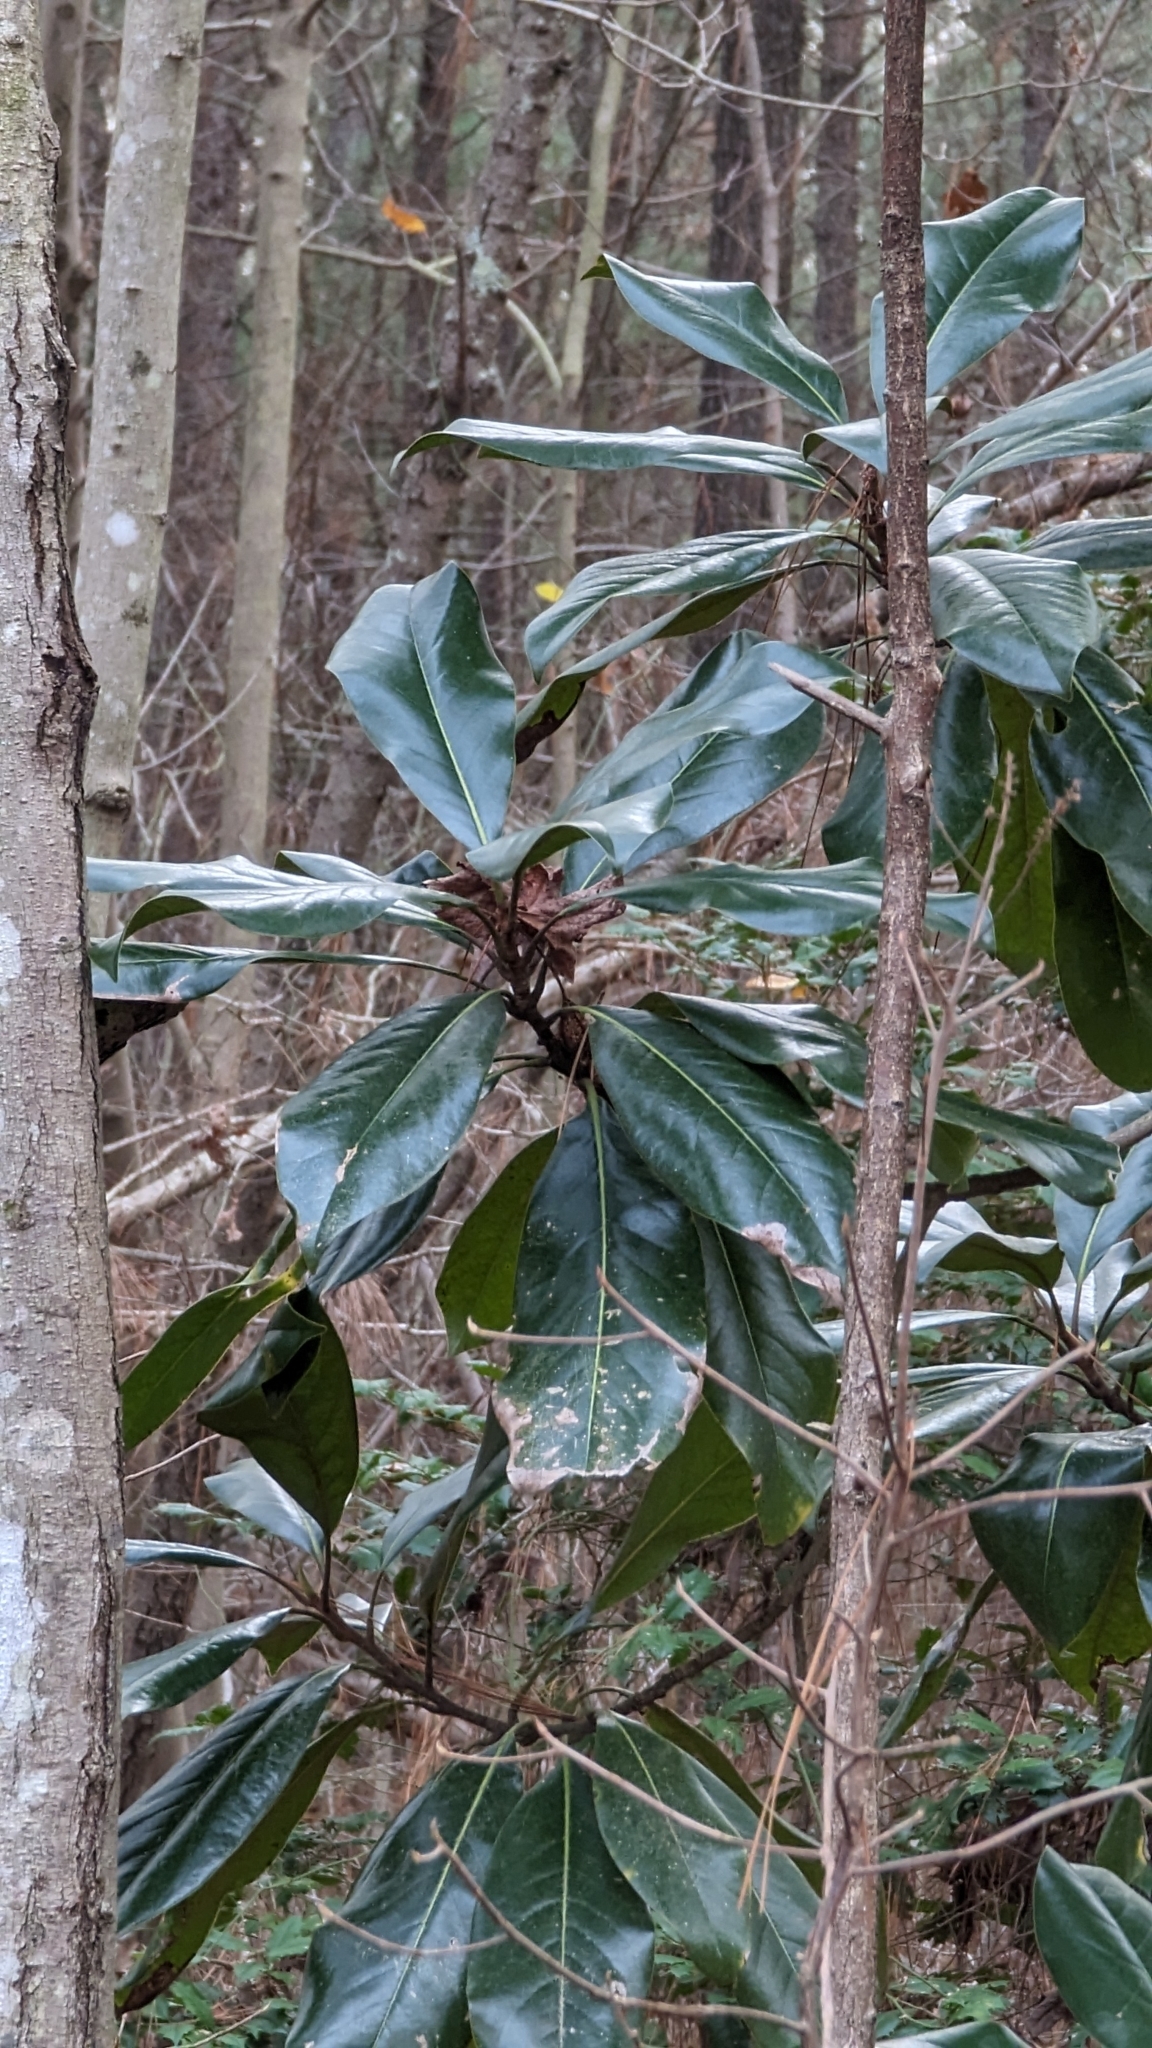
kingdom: Plantae
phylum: Tracheophyta
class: Magnoliopsida
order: Magnoliales
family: Magnoliaceae
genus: Magnolia
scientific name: Magnolia grandiflora
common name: Southern magnolia
